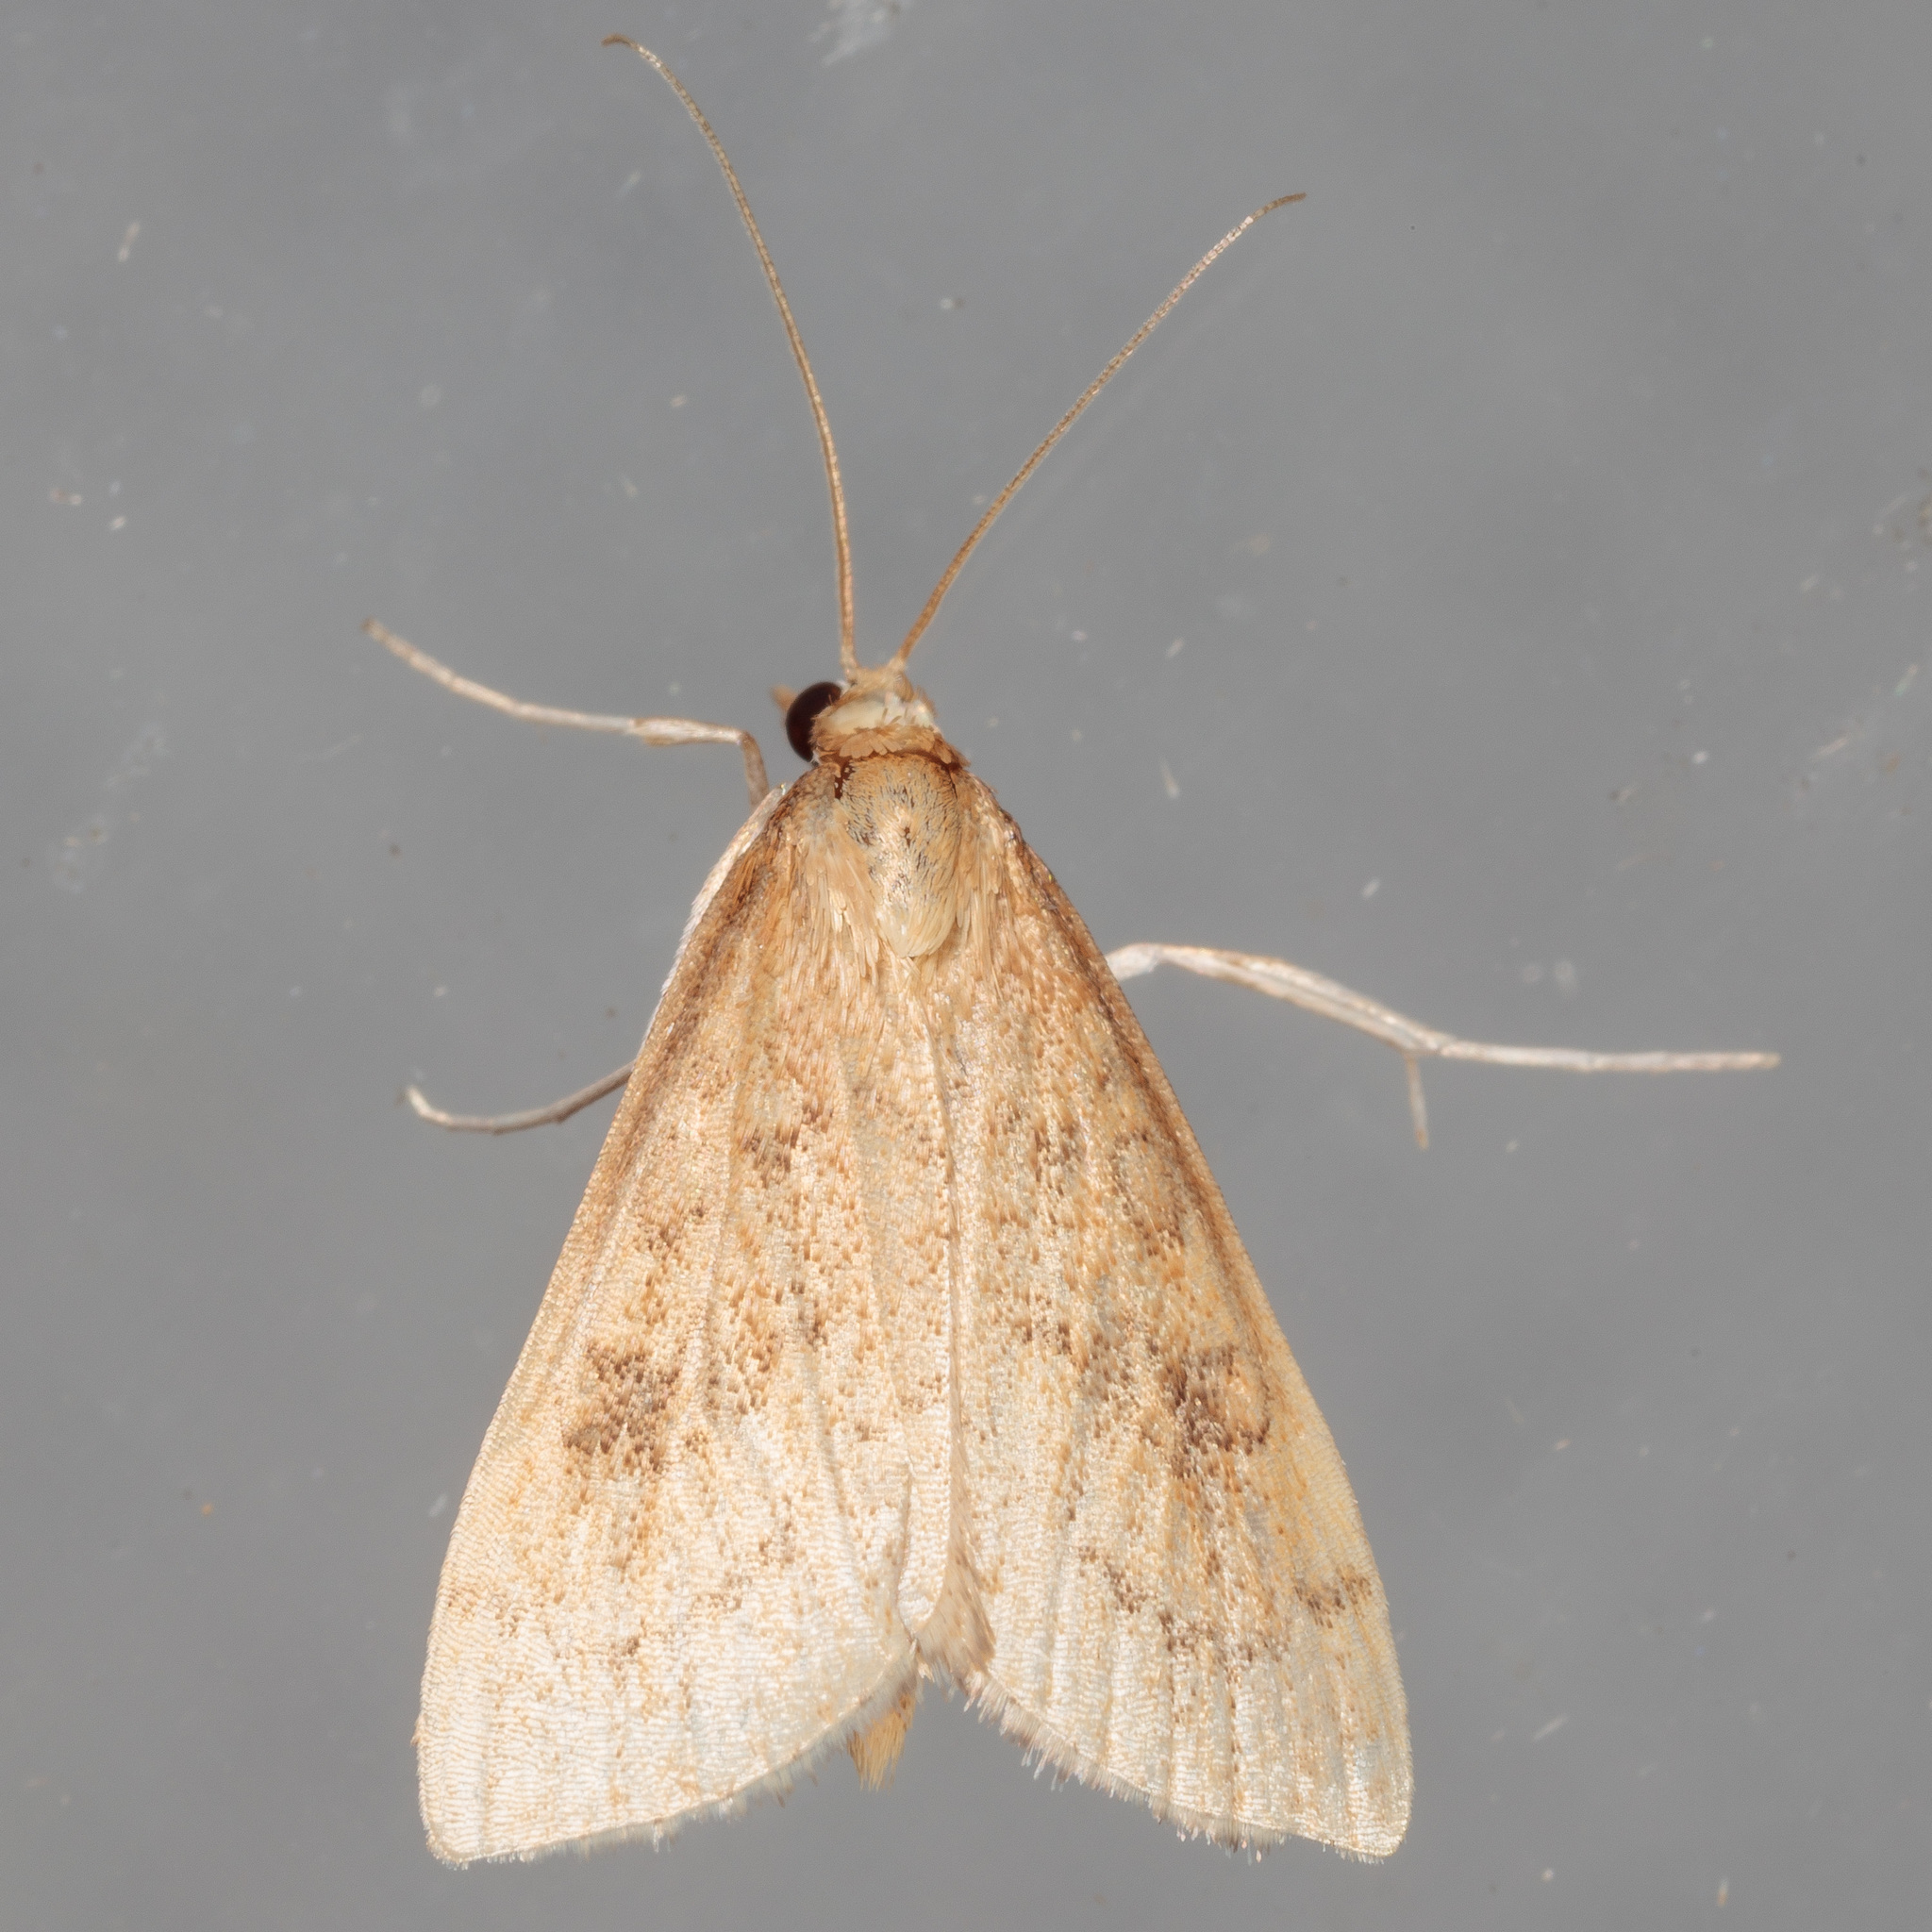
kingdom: Animalia
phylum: Arthropoda
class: Insecta
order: Lepidoptera
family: Crambidae
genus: Udea
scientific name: Udea rubigalis
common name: Celery leaftier moth
